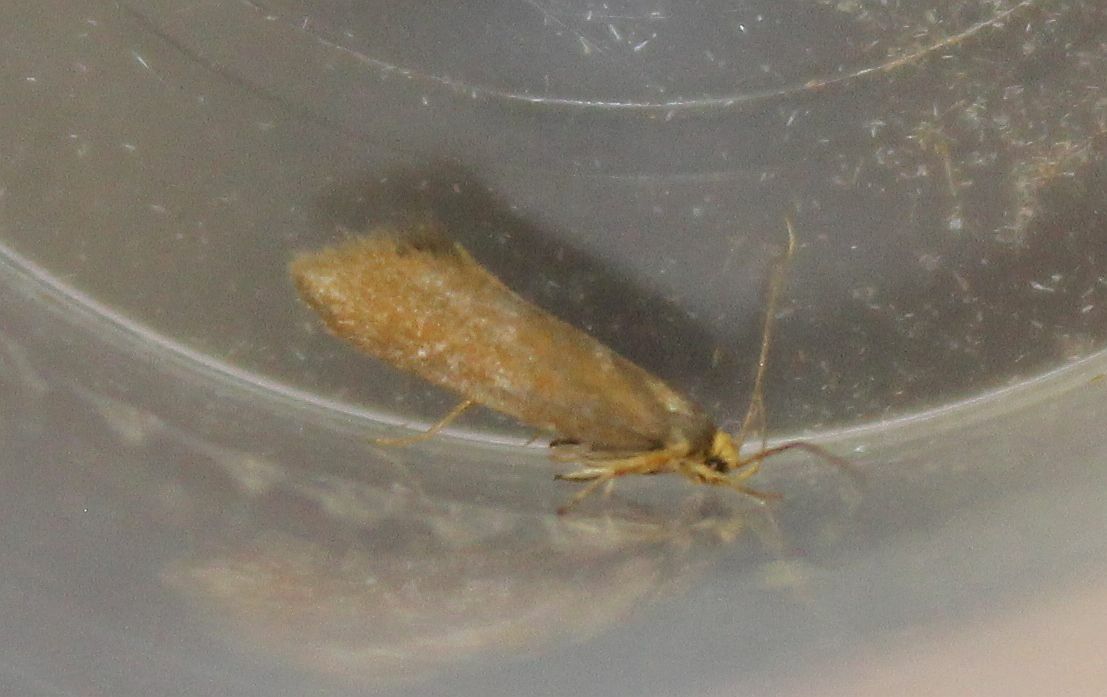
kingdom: Animalia
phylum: Arthropoda
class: Insecta
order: Lepidoptera
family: Oecophoridae
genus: Borkhausenia
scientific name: Borkhausenia Crassa unitella
